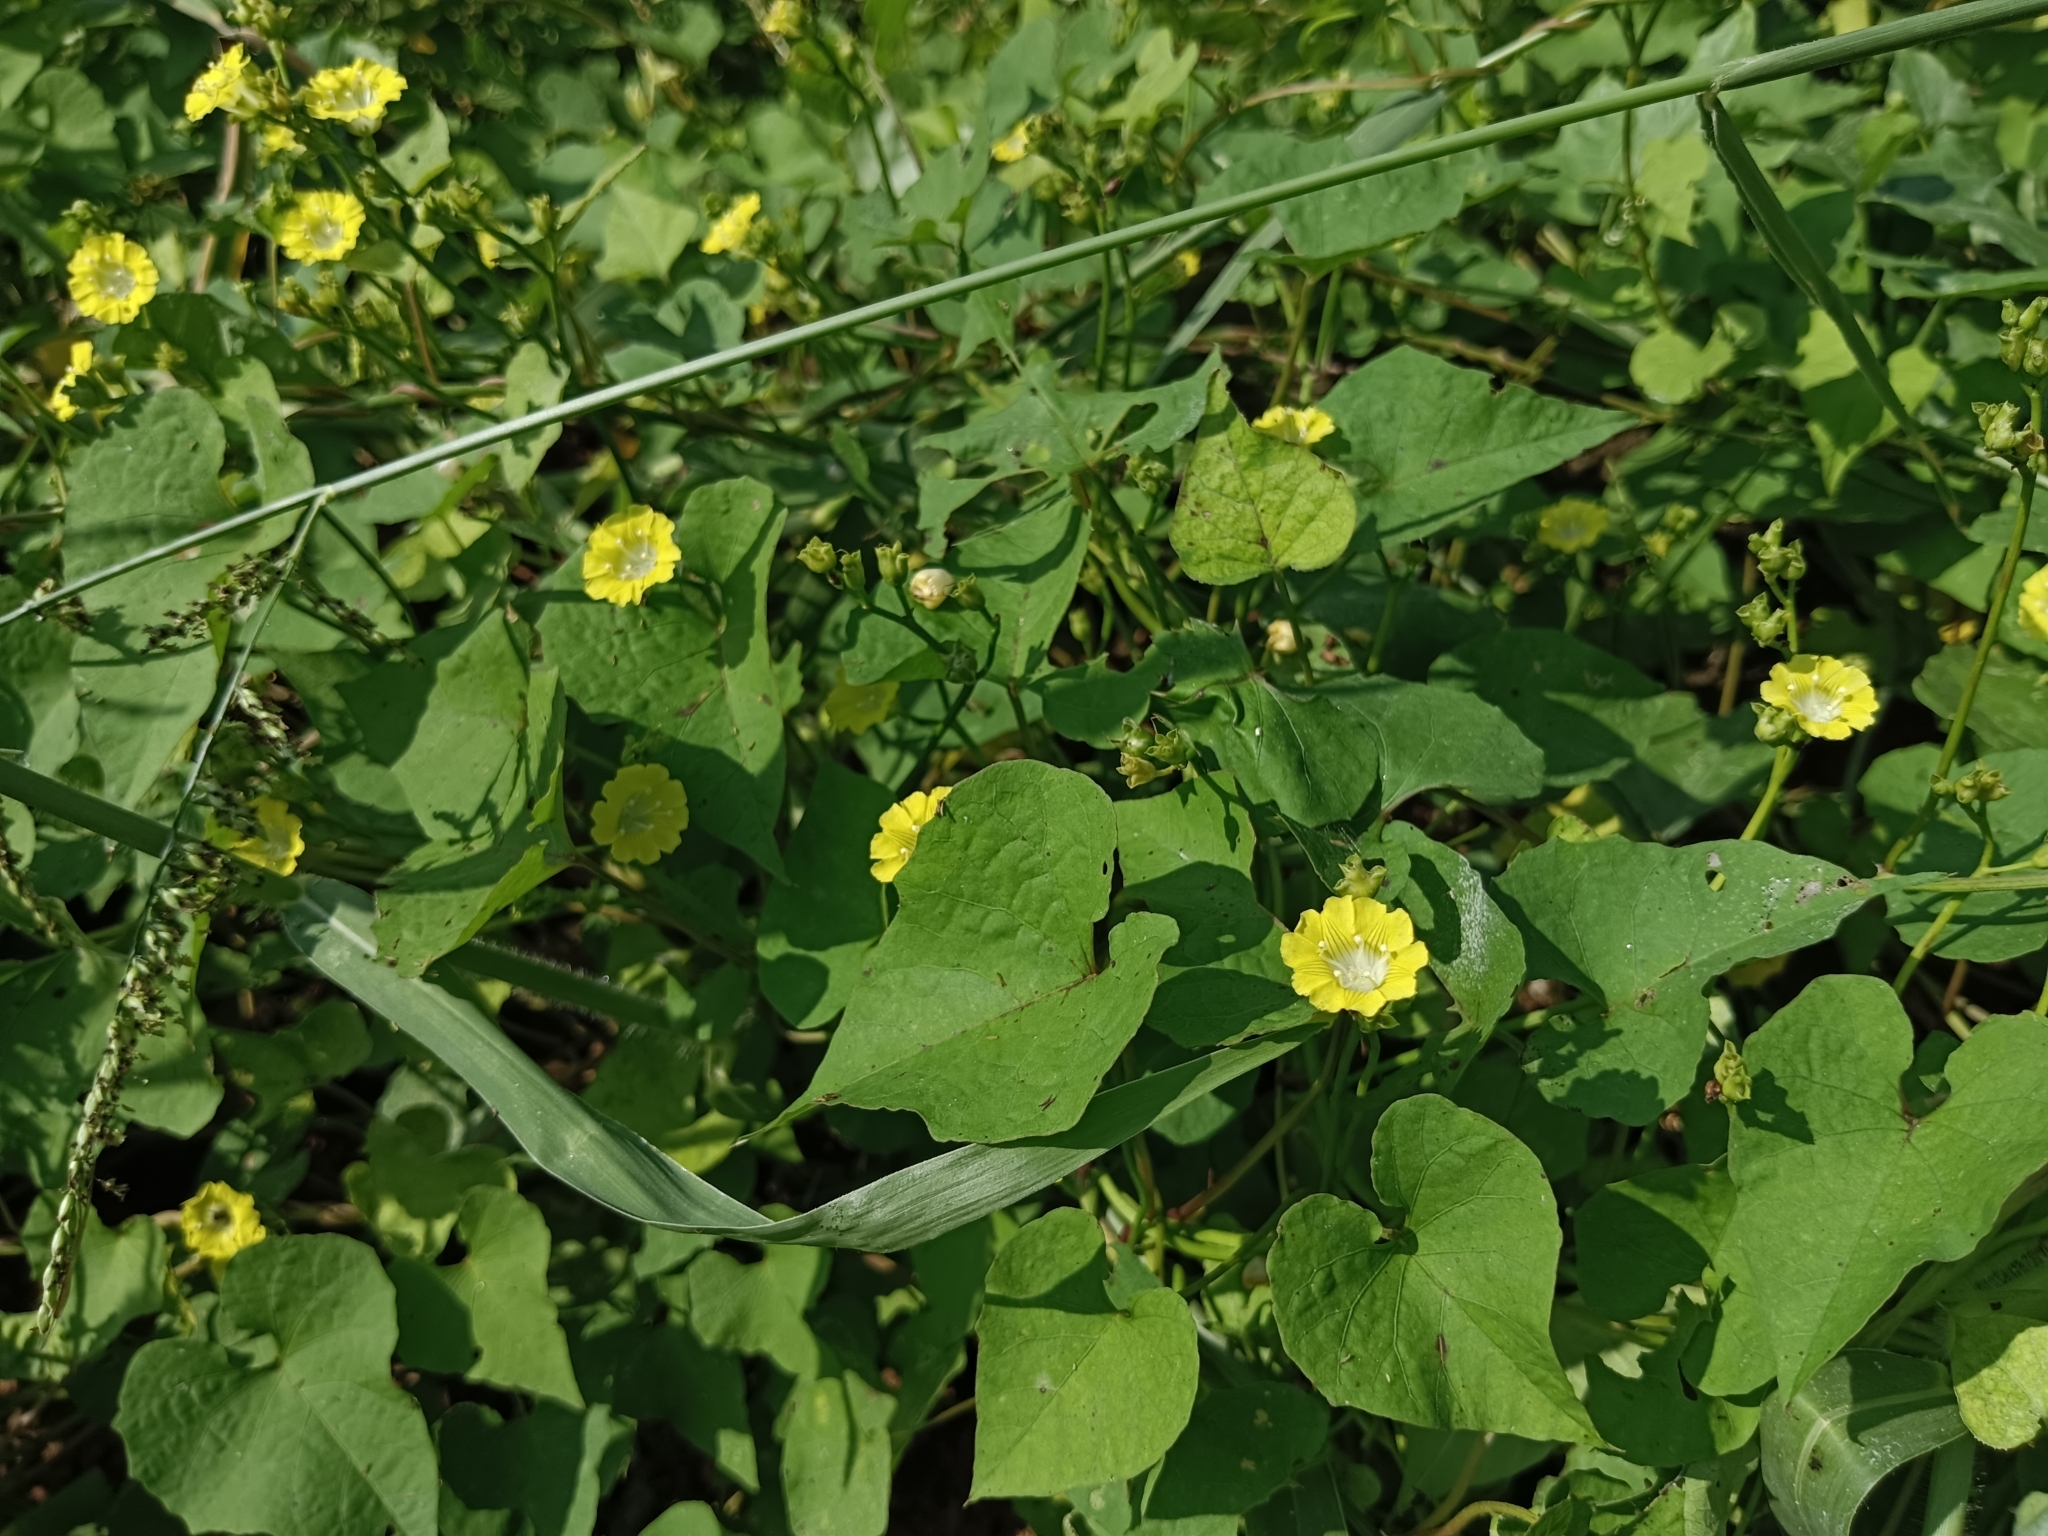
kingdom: Plantae
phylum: Tracheophyta
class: Magnoliopsida
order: Solanales
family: Convolvulaceae
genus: Merremia
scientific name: Merremia hederacea
